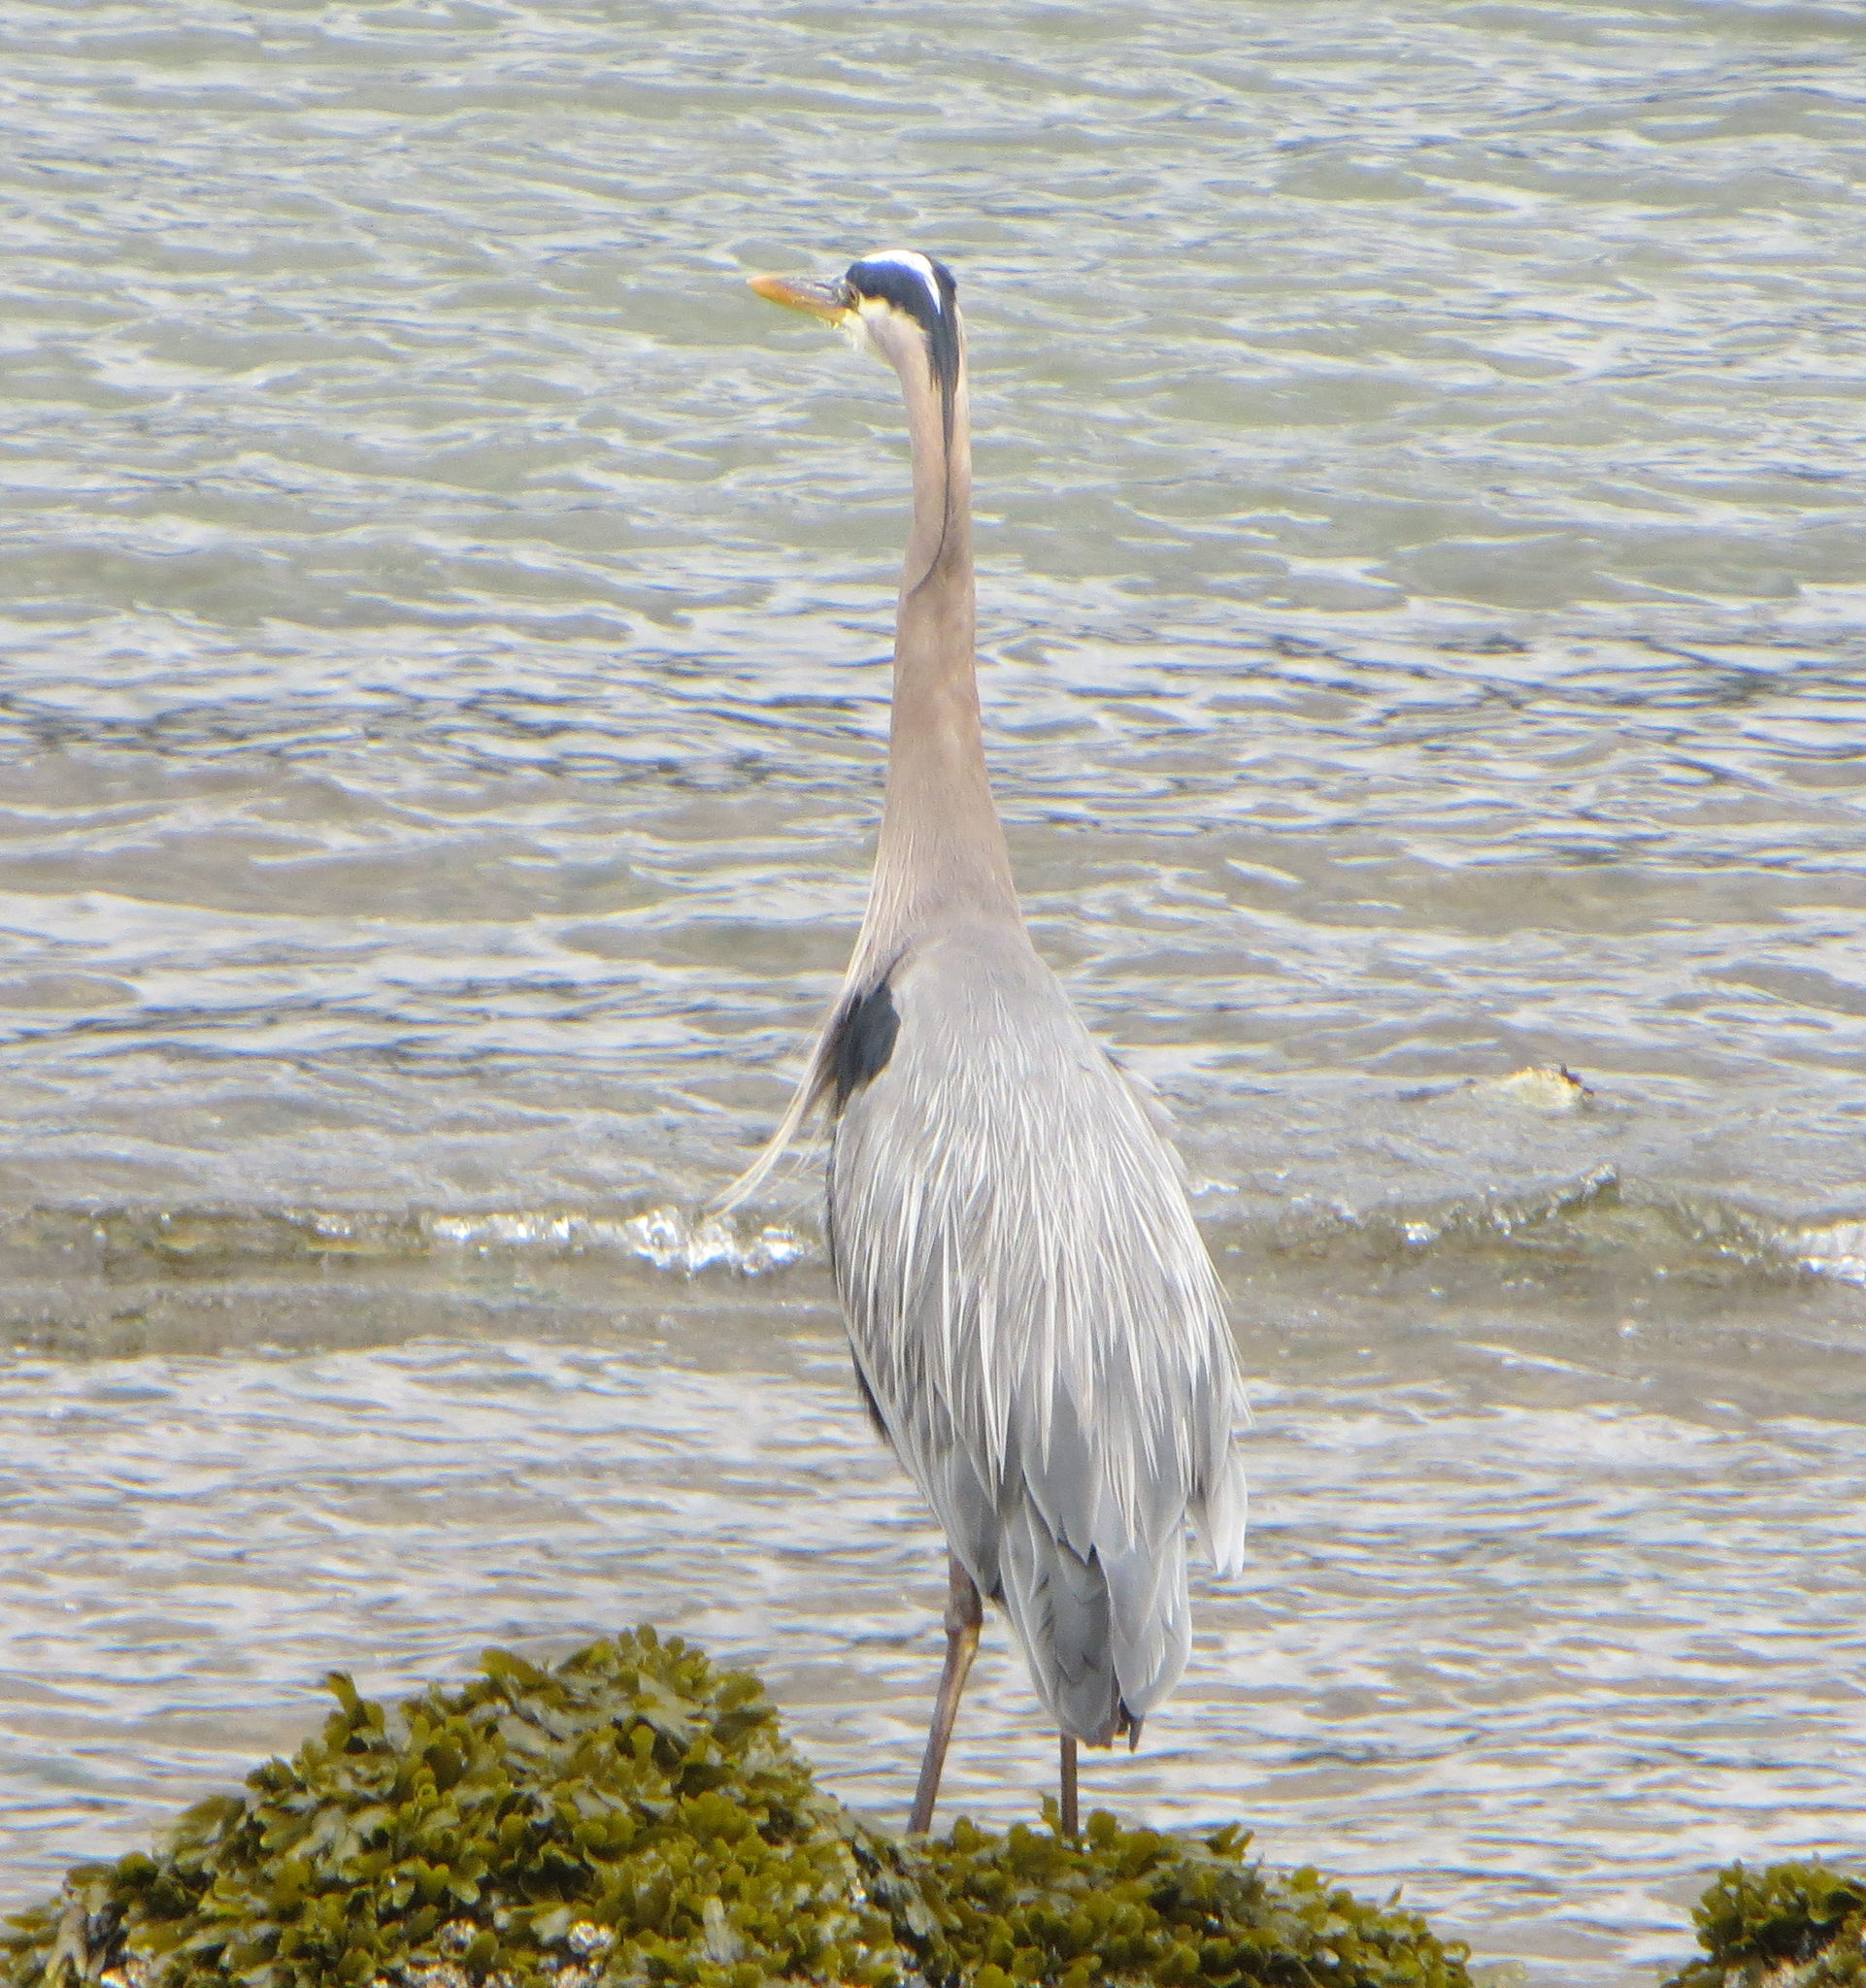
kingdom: Animalia
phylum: Chordata
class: Aves
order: Pelecaniformes
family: Ardeidae
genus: Ardea
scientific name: Ardea herodias
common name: Great blue heron
